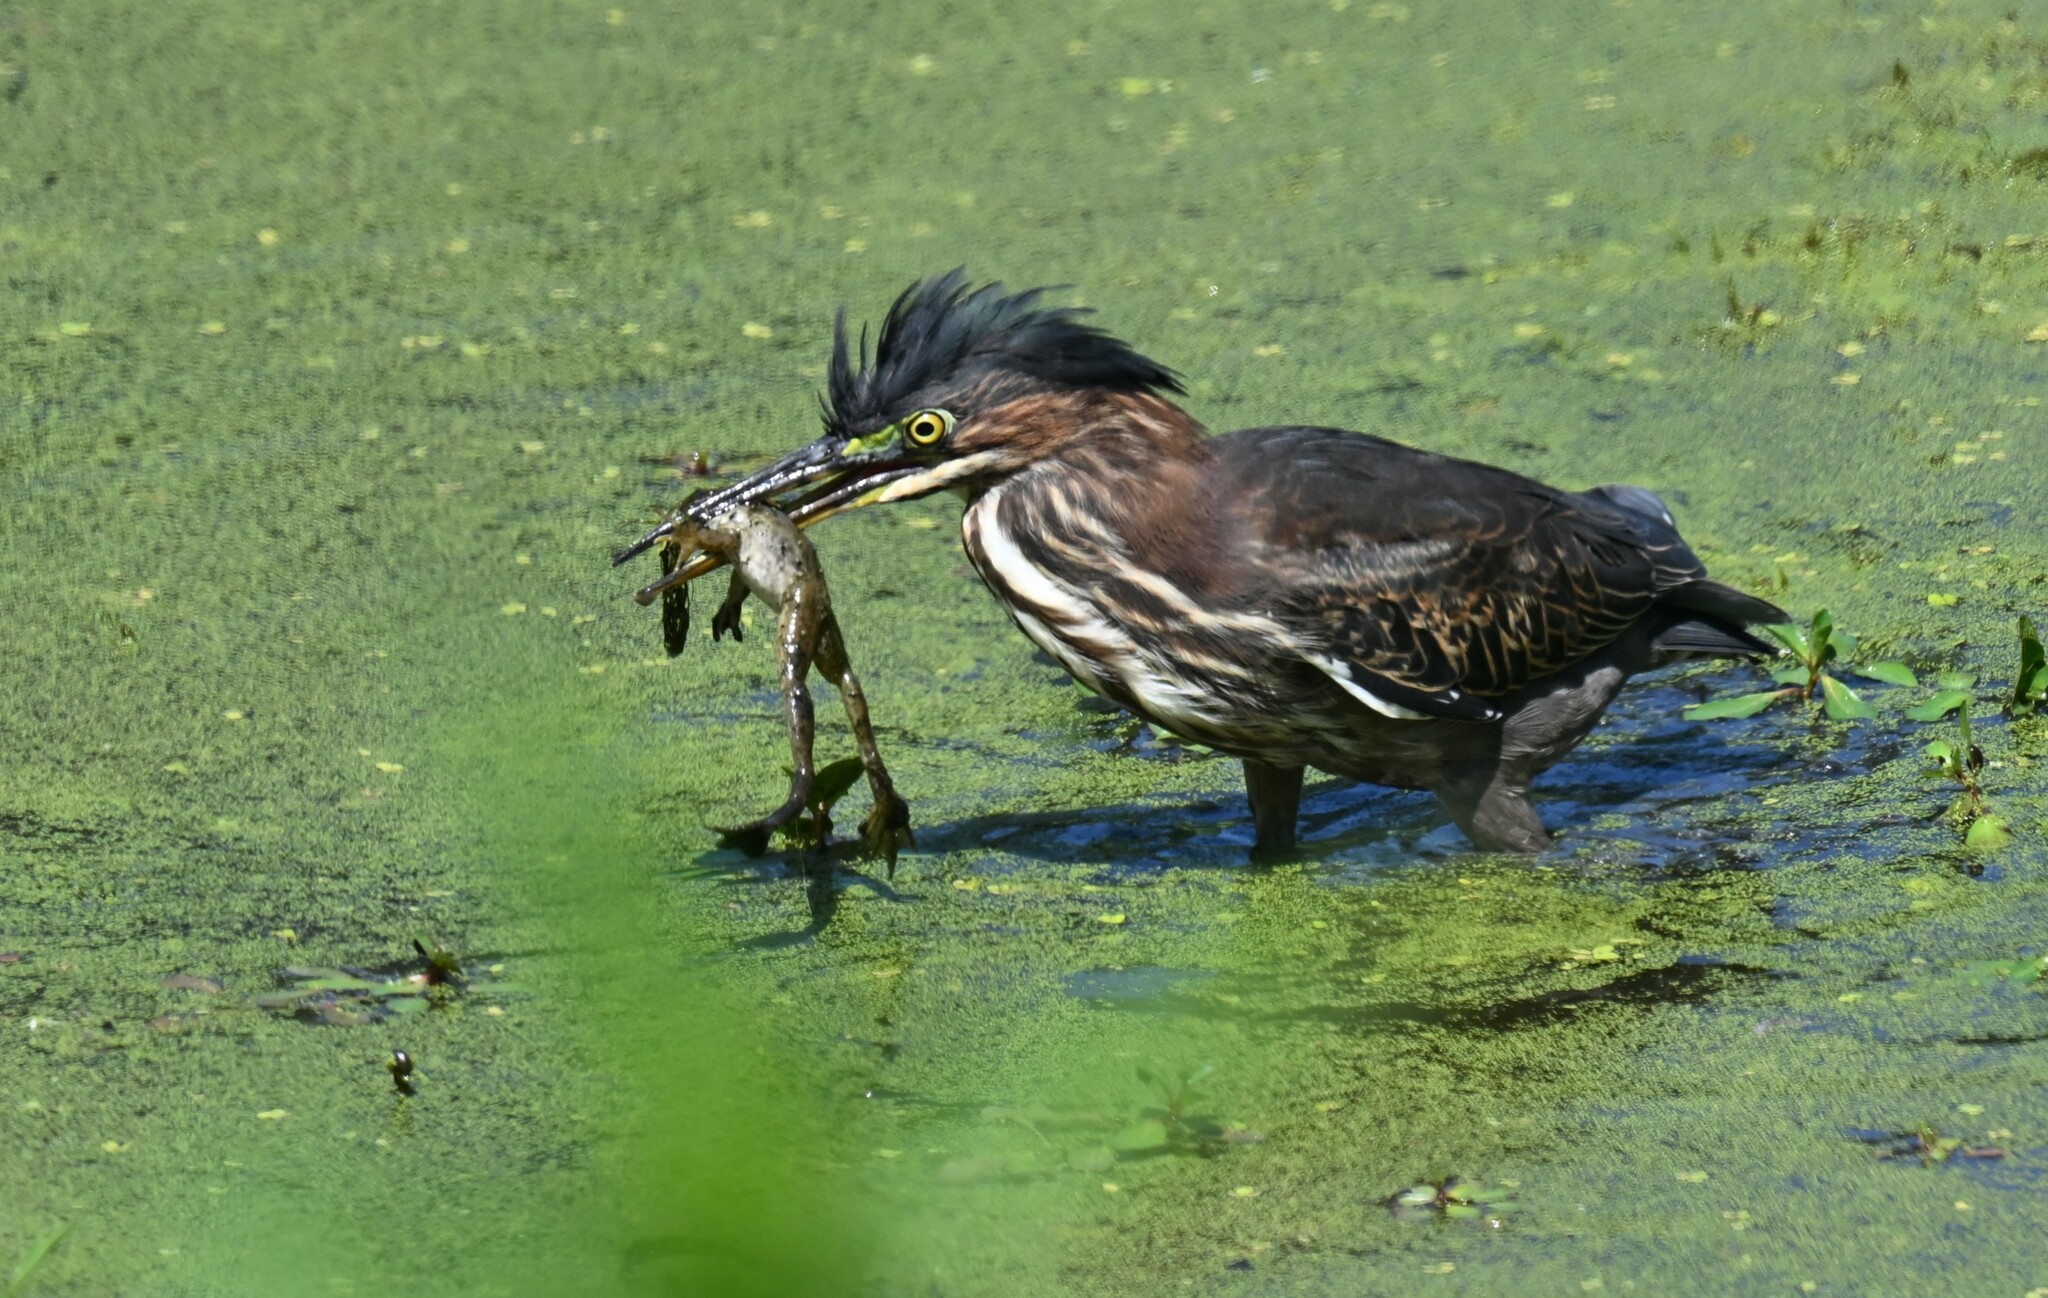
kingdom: Animalia
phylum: Chordata
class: Aves
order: Pelecaniformes
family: Ardeidae
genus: Butorides
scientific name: Butorides virescens
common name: Green heron
